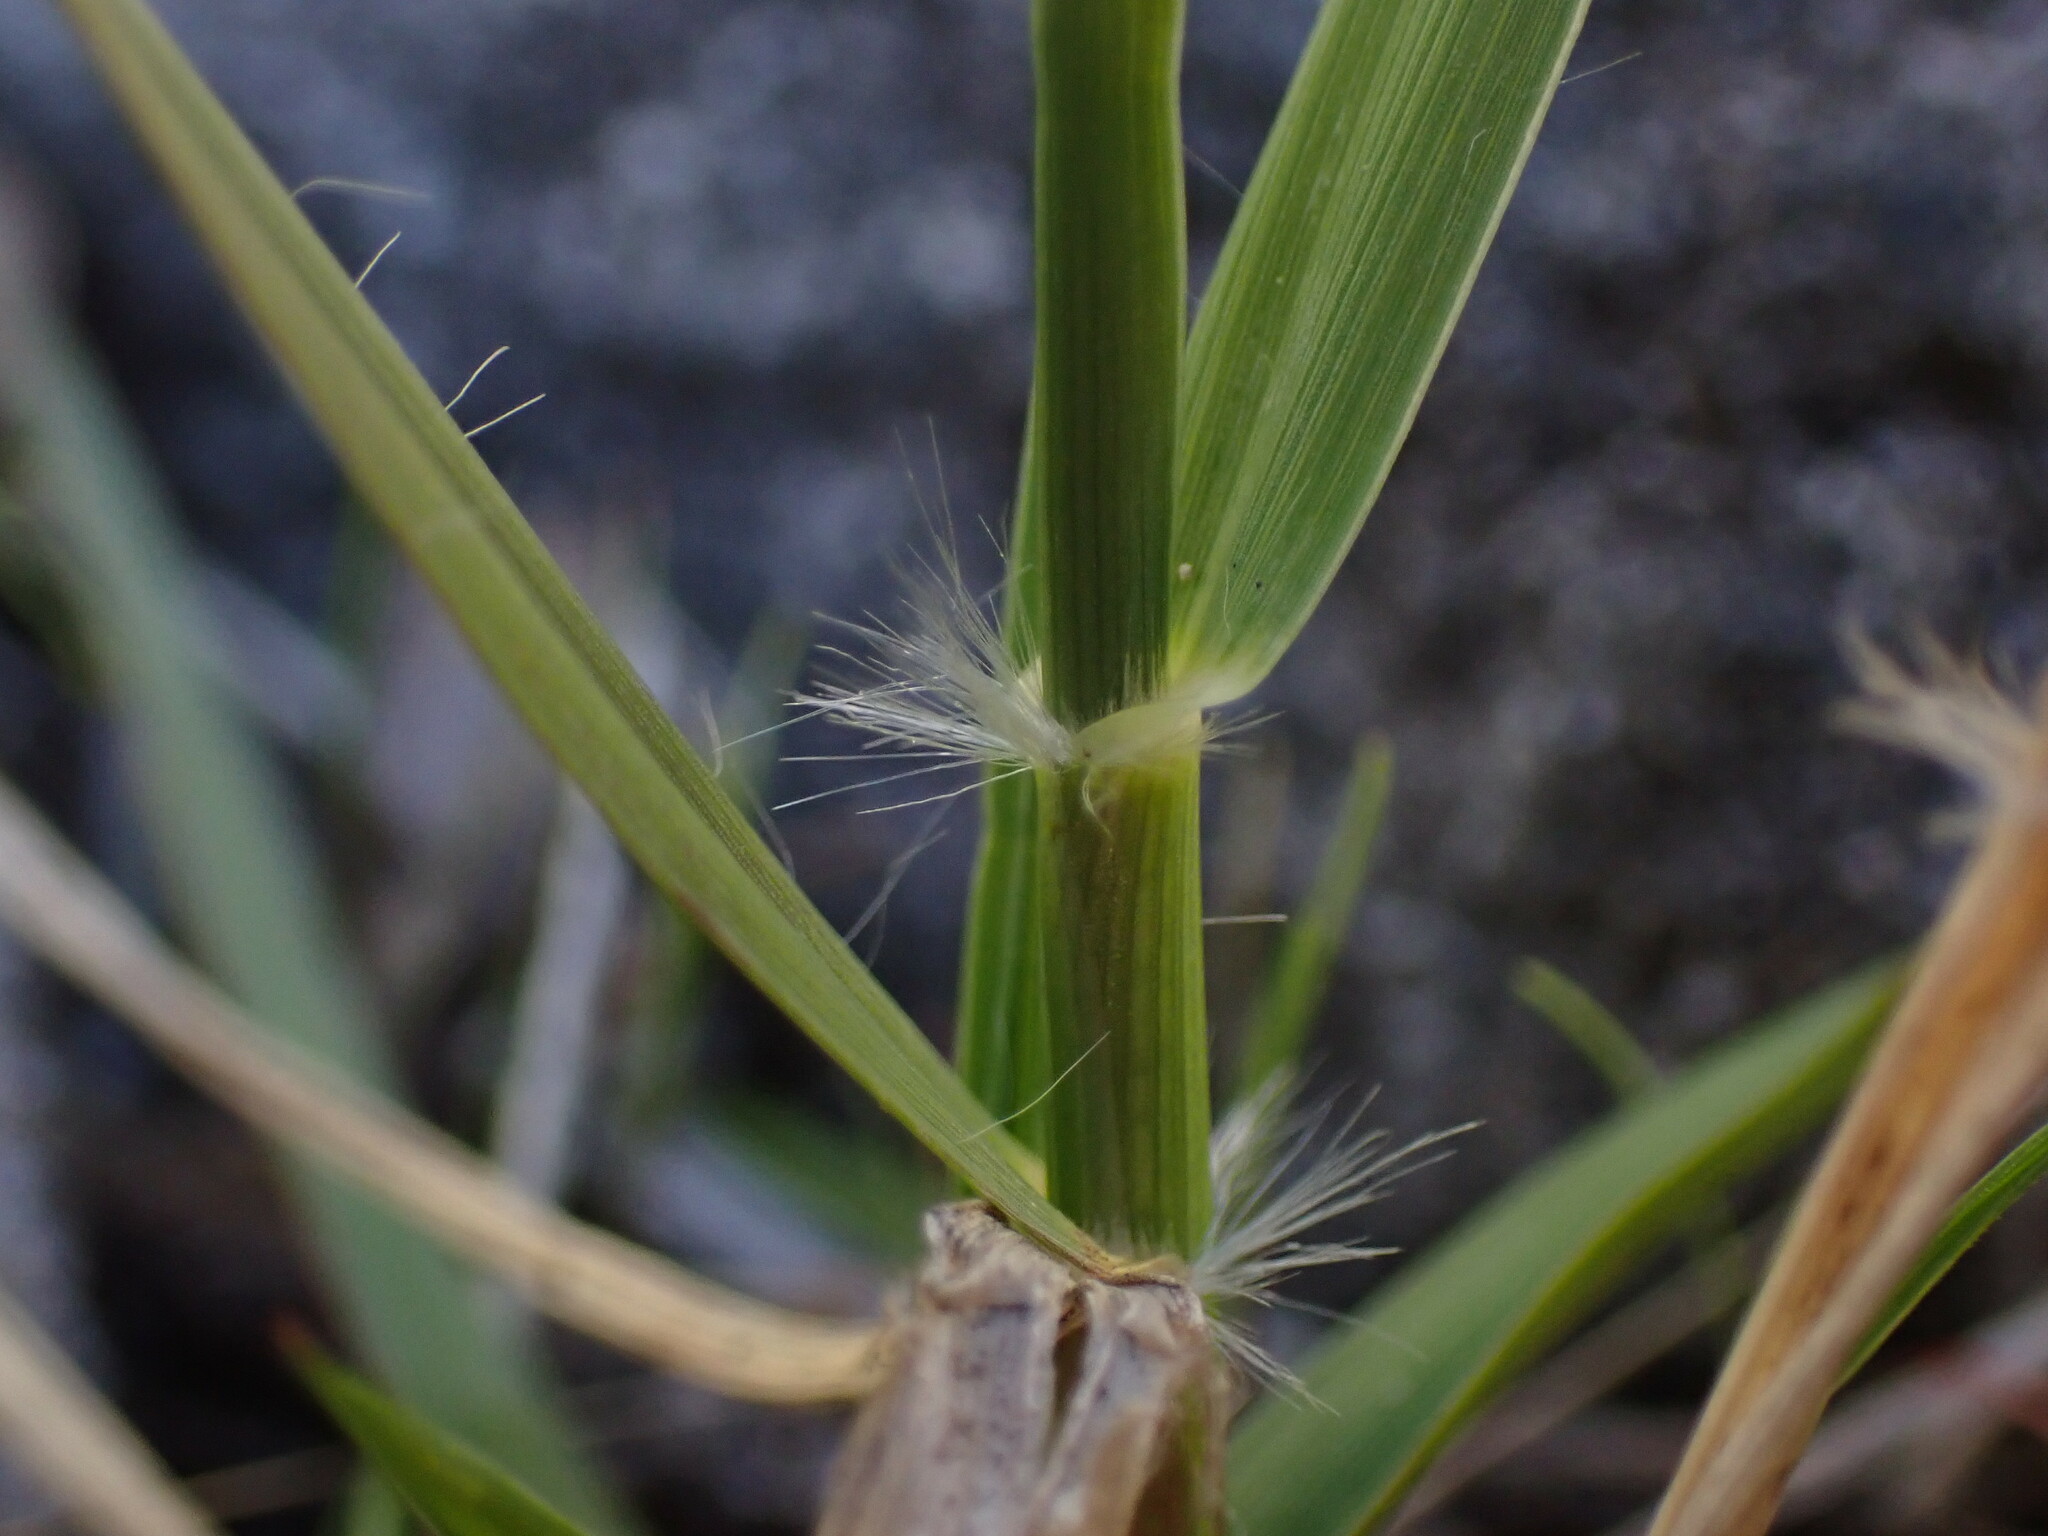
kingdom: Plantae
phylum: Tracheophyta
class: Liliopsida
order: Poales
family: Poaceae
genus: Danthonia
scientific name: Danthonia californica
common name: California oat grass
